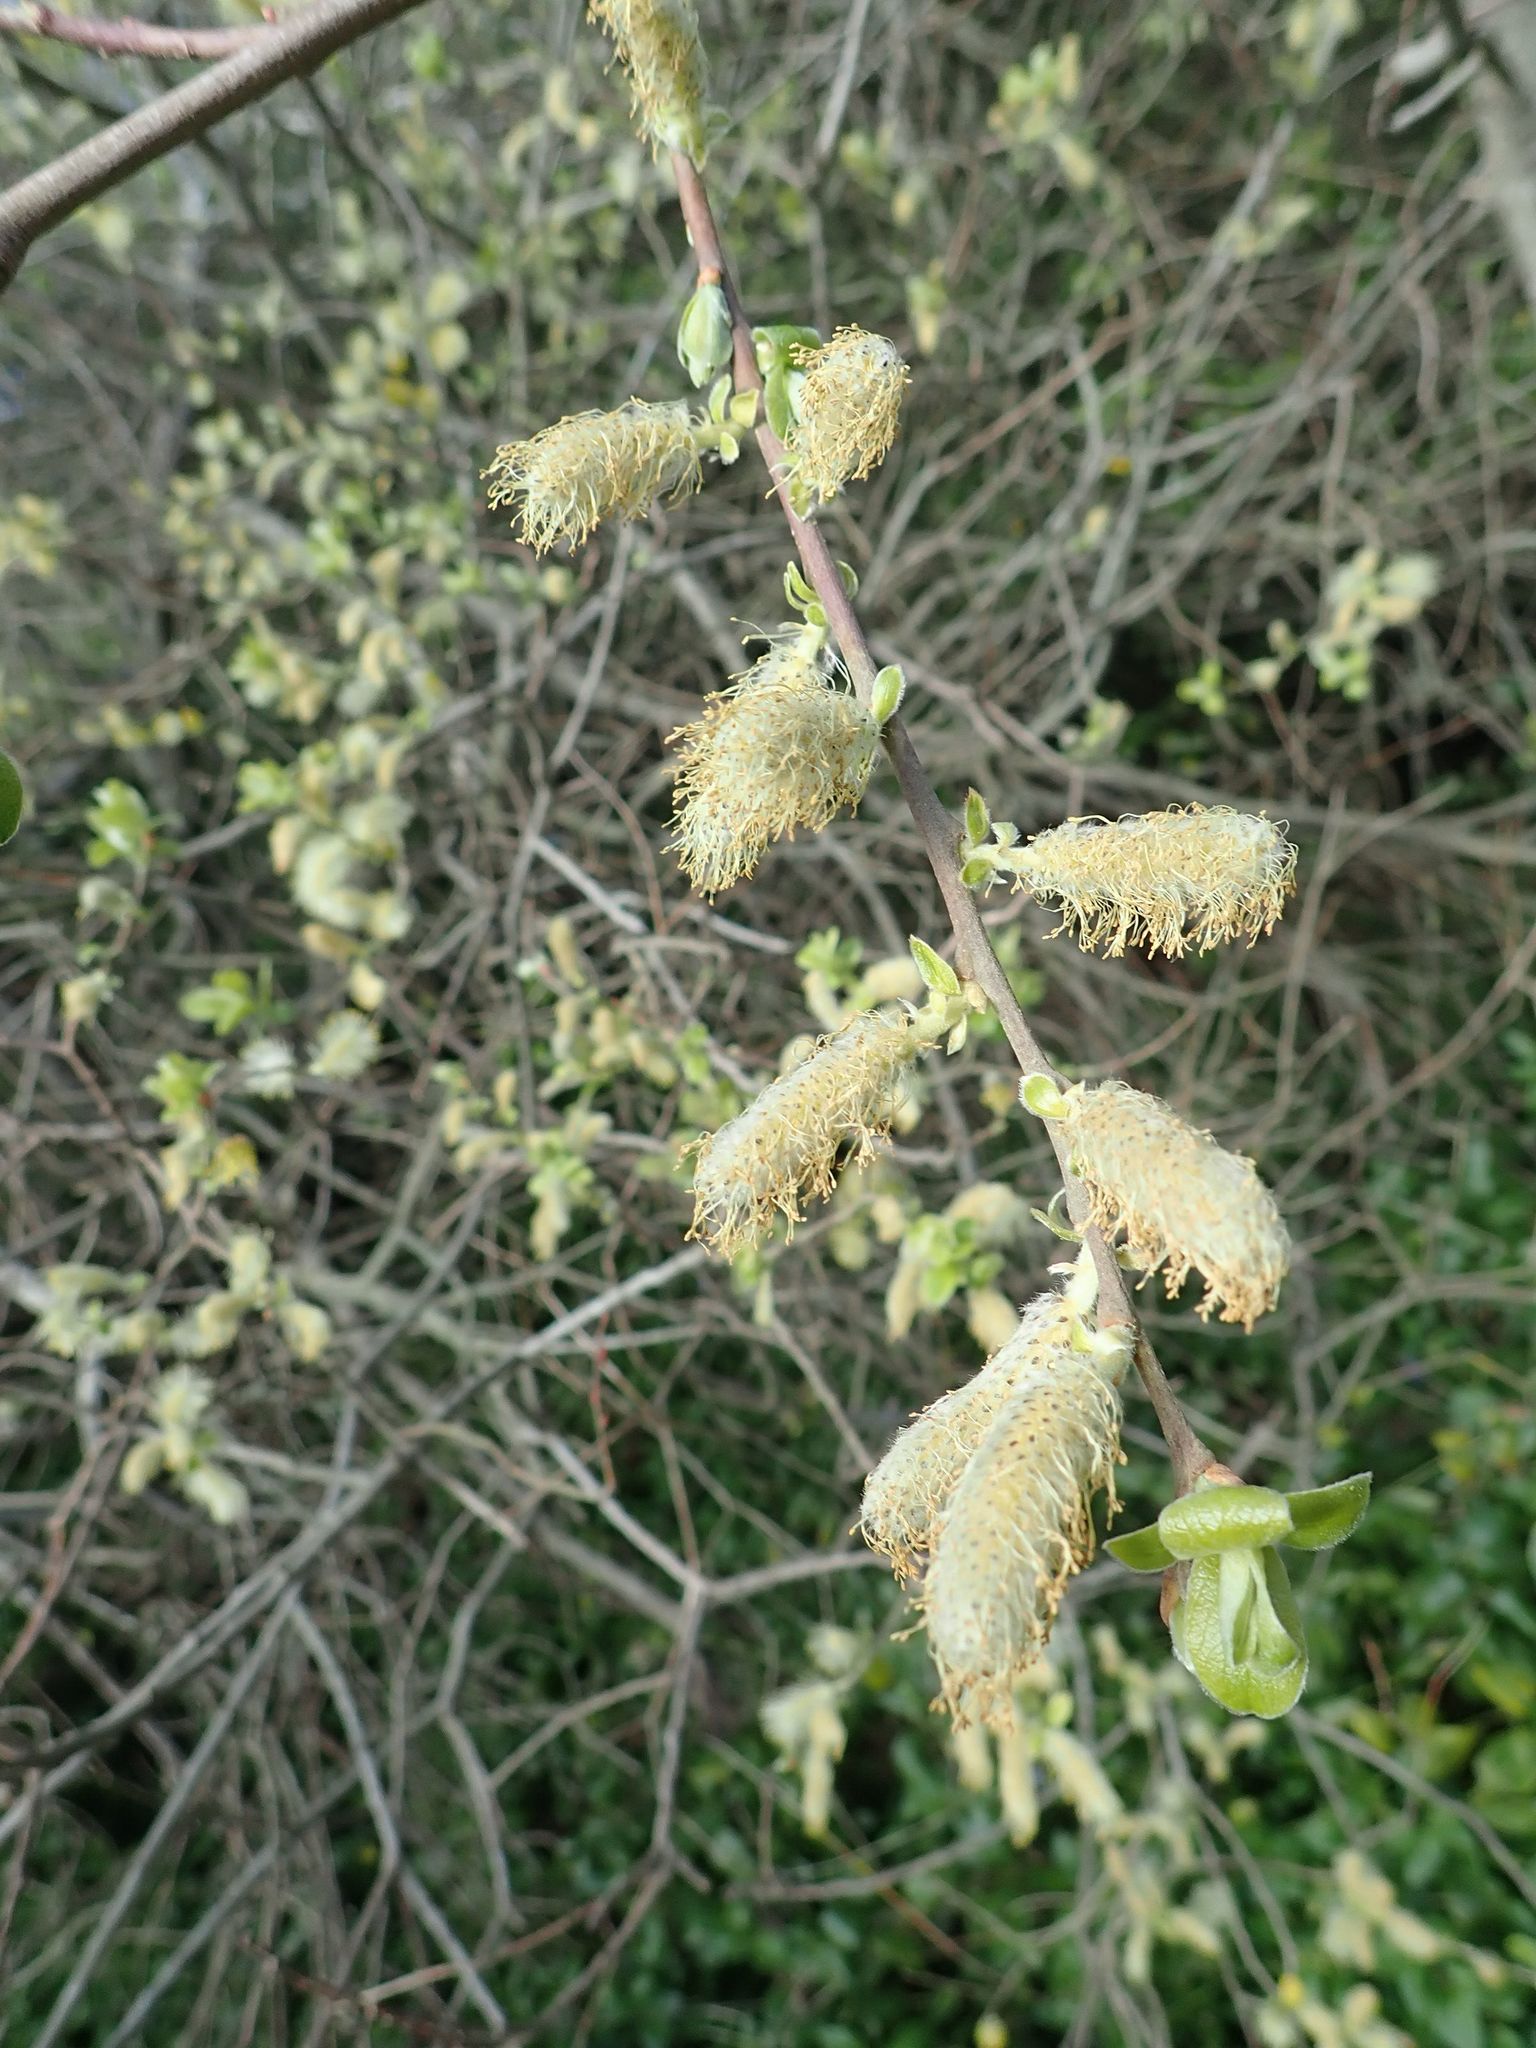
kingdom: Plantae
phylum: Tracheophyta
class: Magnoliopsida
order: Malpighiales
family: Salicaceae
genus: Salix
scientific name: Salix cinerea
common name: Common sallow
